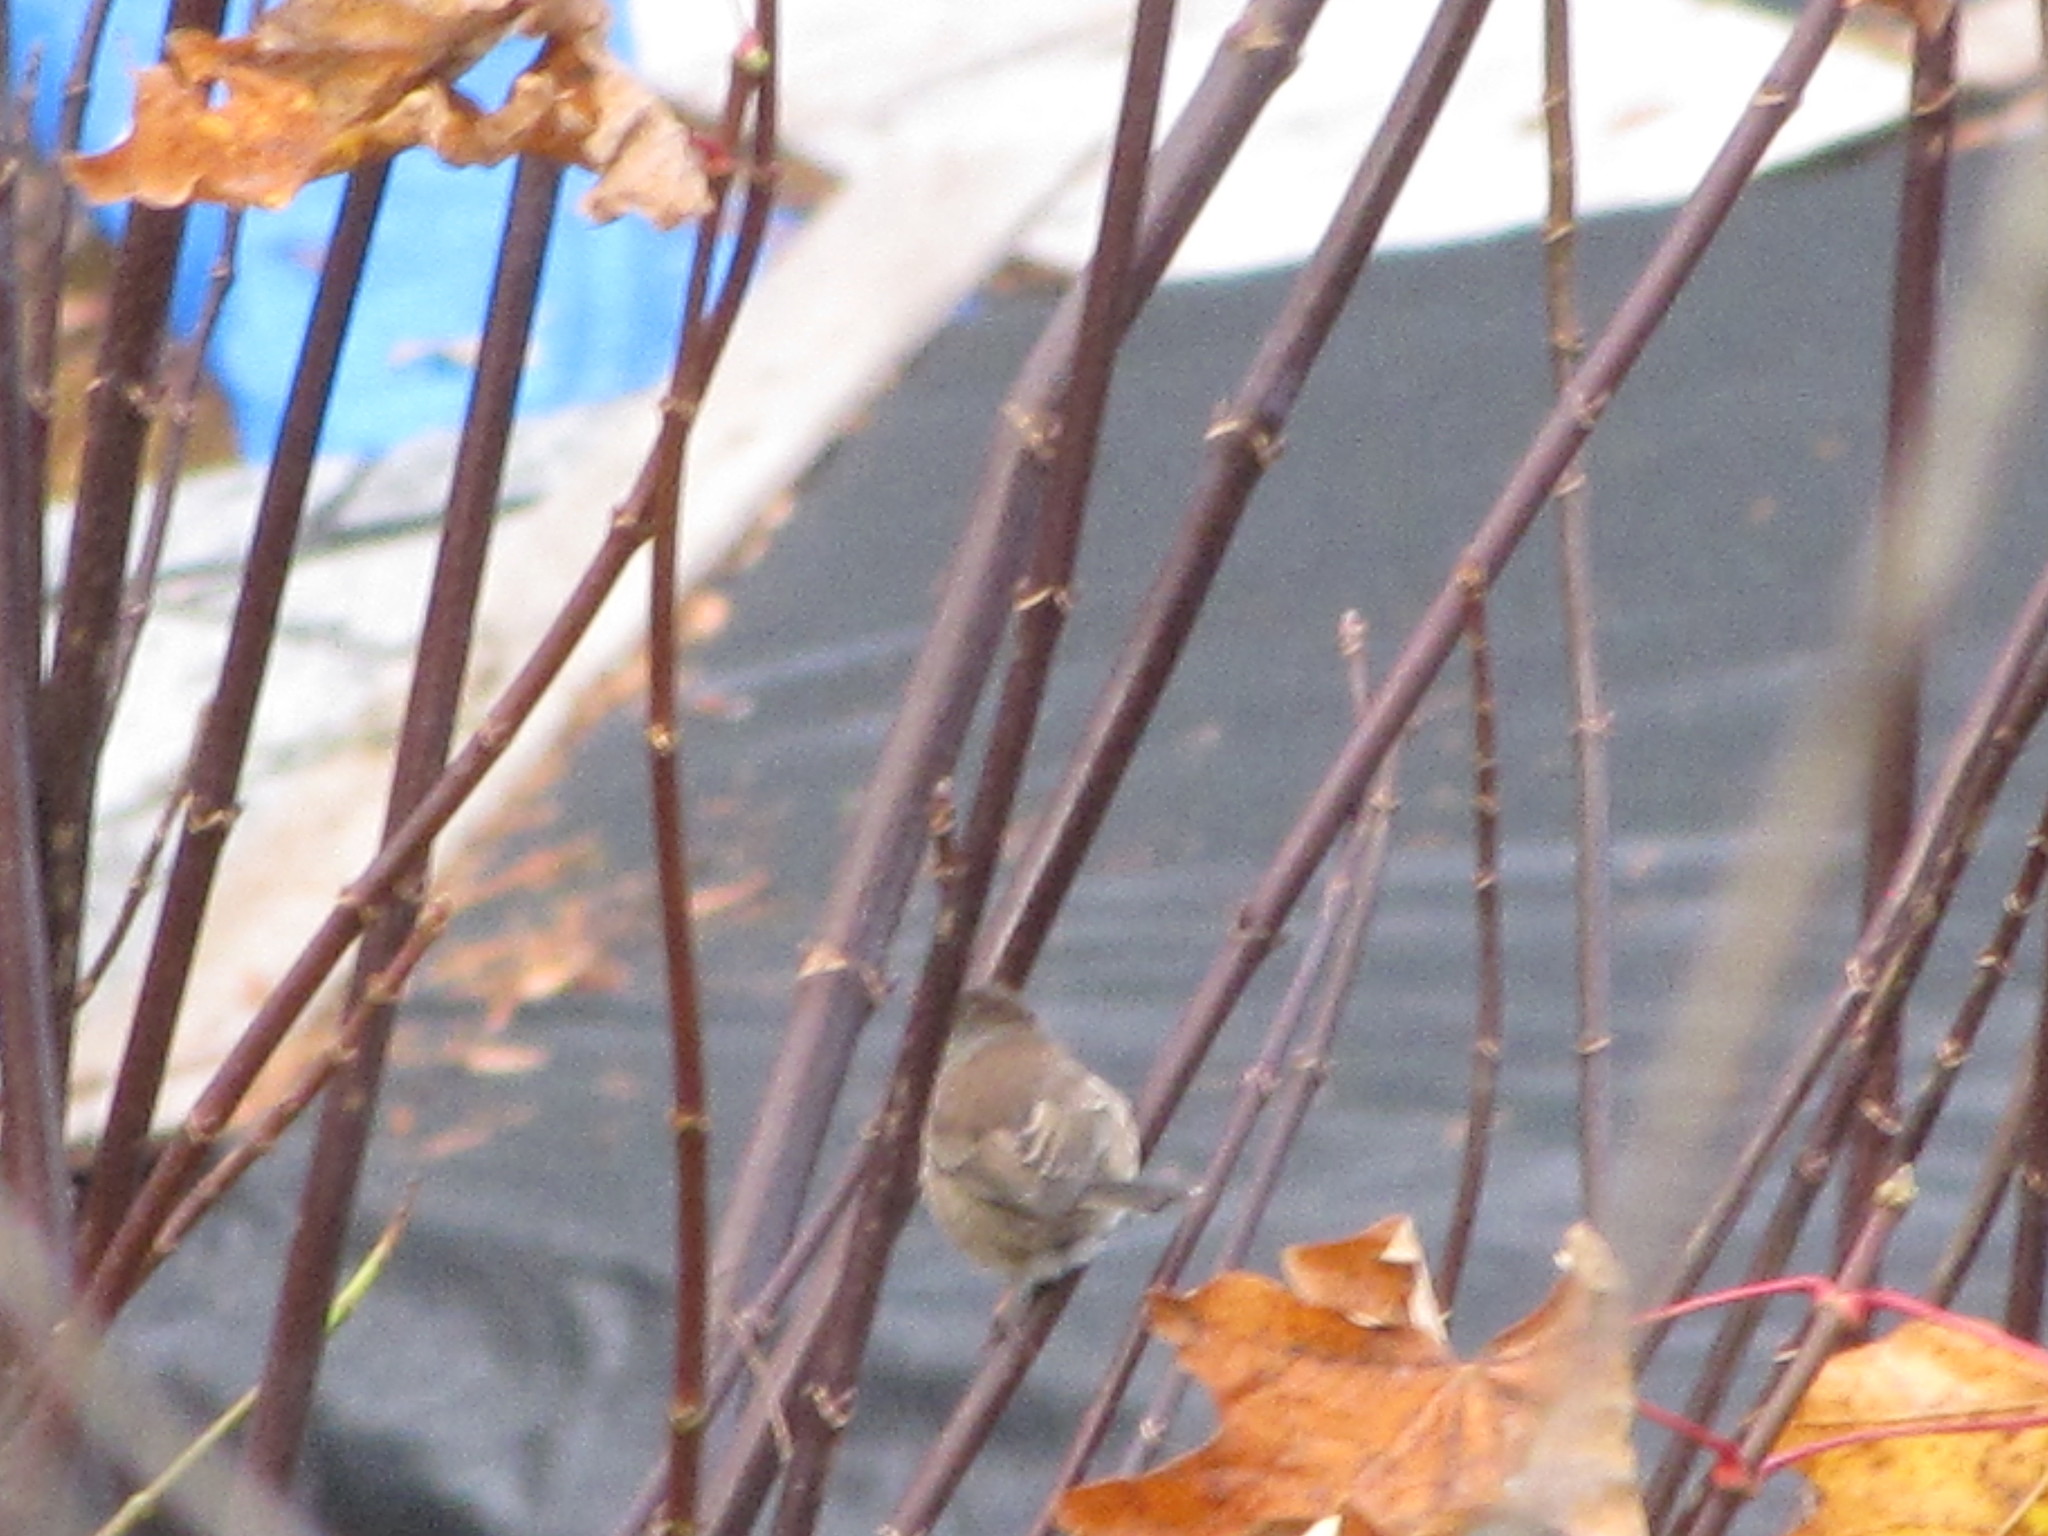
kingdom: Animalia
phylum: Chordata
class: Aves
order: Passeriformes
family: Passerellidae
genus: Junco
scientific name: Junco hyemalis
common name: Dark-eyed junco
